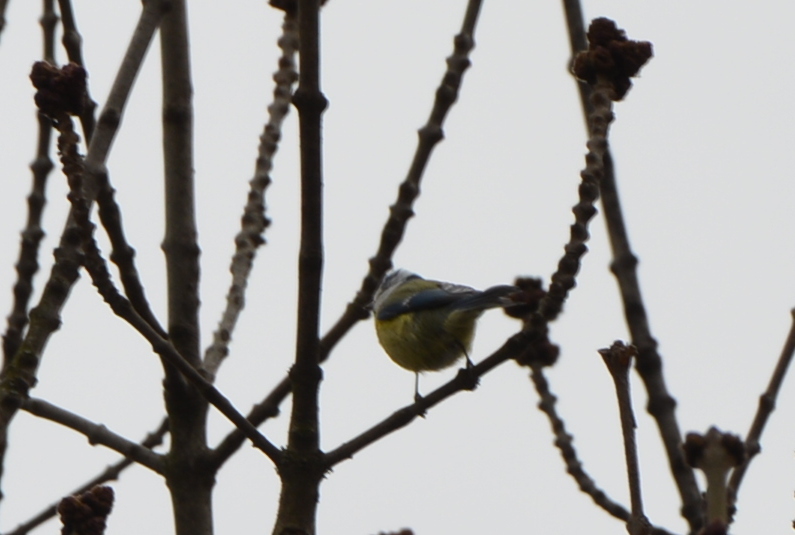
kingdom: Animalia
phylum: Chordata
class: Aves
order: Passeriformes
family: Paridae
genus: Cyanistes
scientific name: Cyanistes caeruleus
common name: Eurasian blue tit
